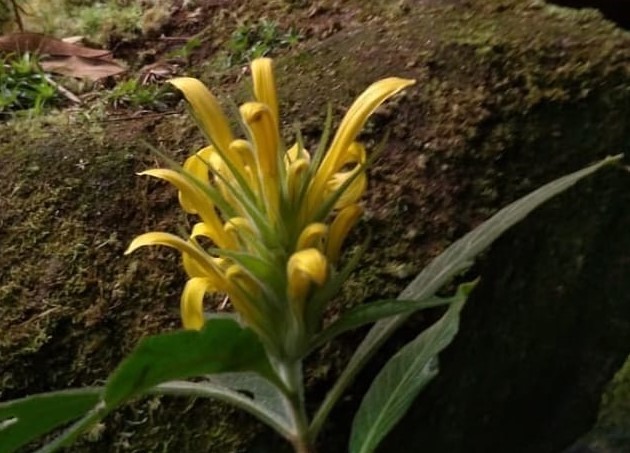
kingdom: Plantae
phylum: Tracheophyta
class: Magnoliopsida
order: Lamiales
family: Acanthaceae
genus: Justicia
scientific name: Justicia citrina
